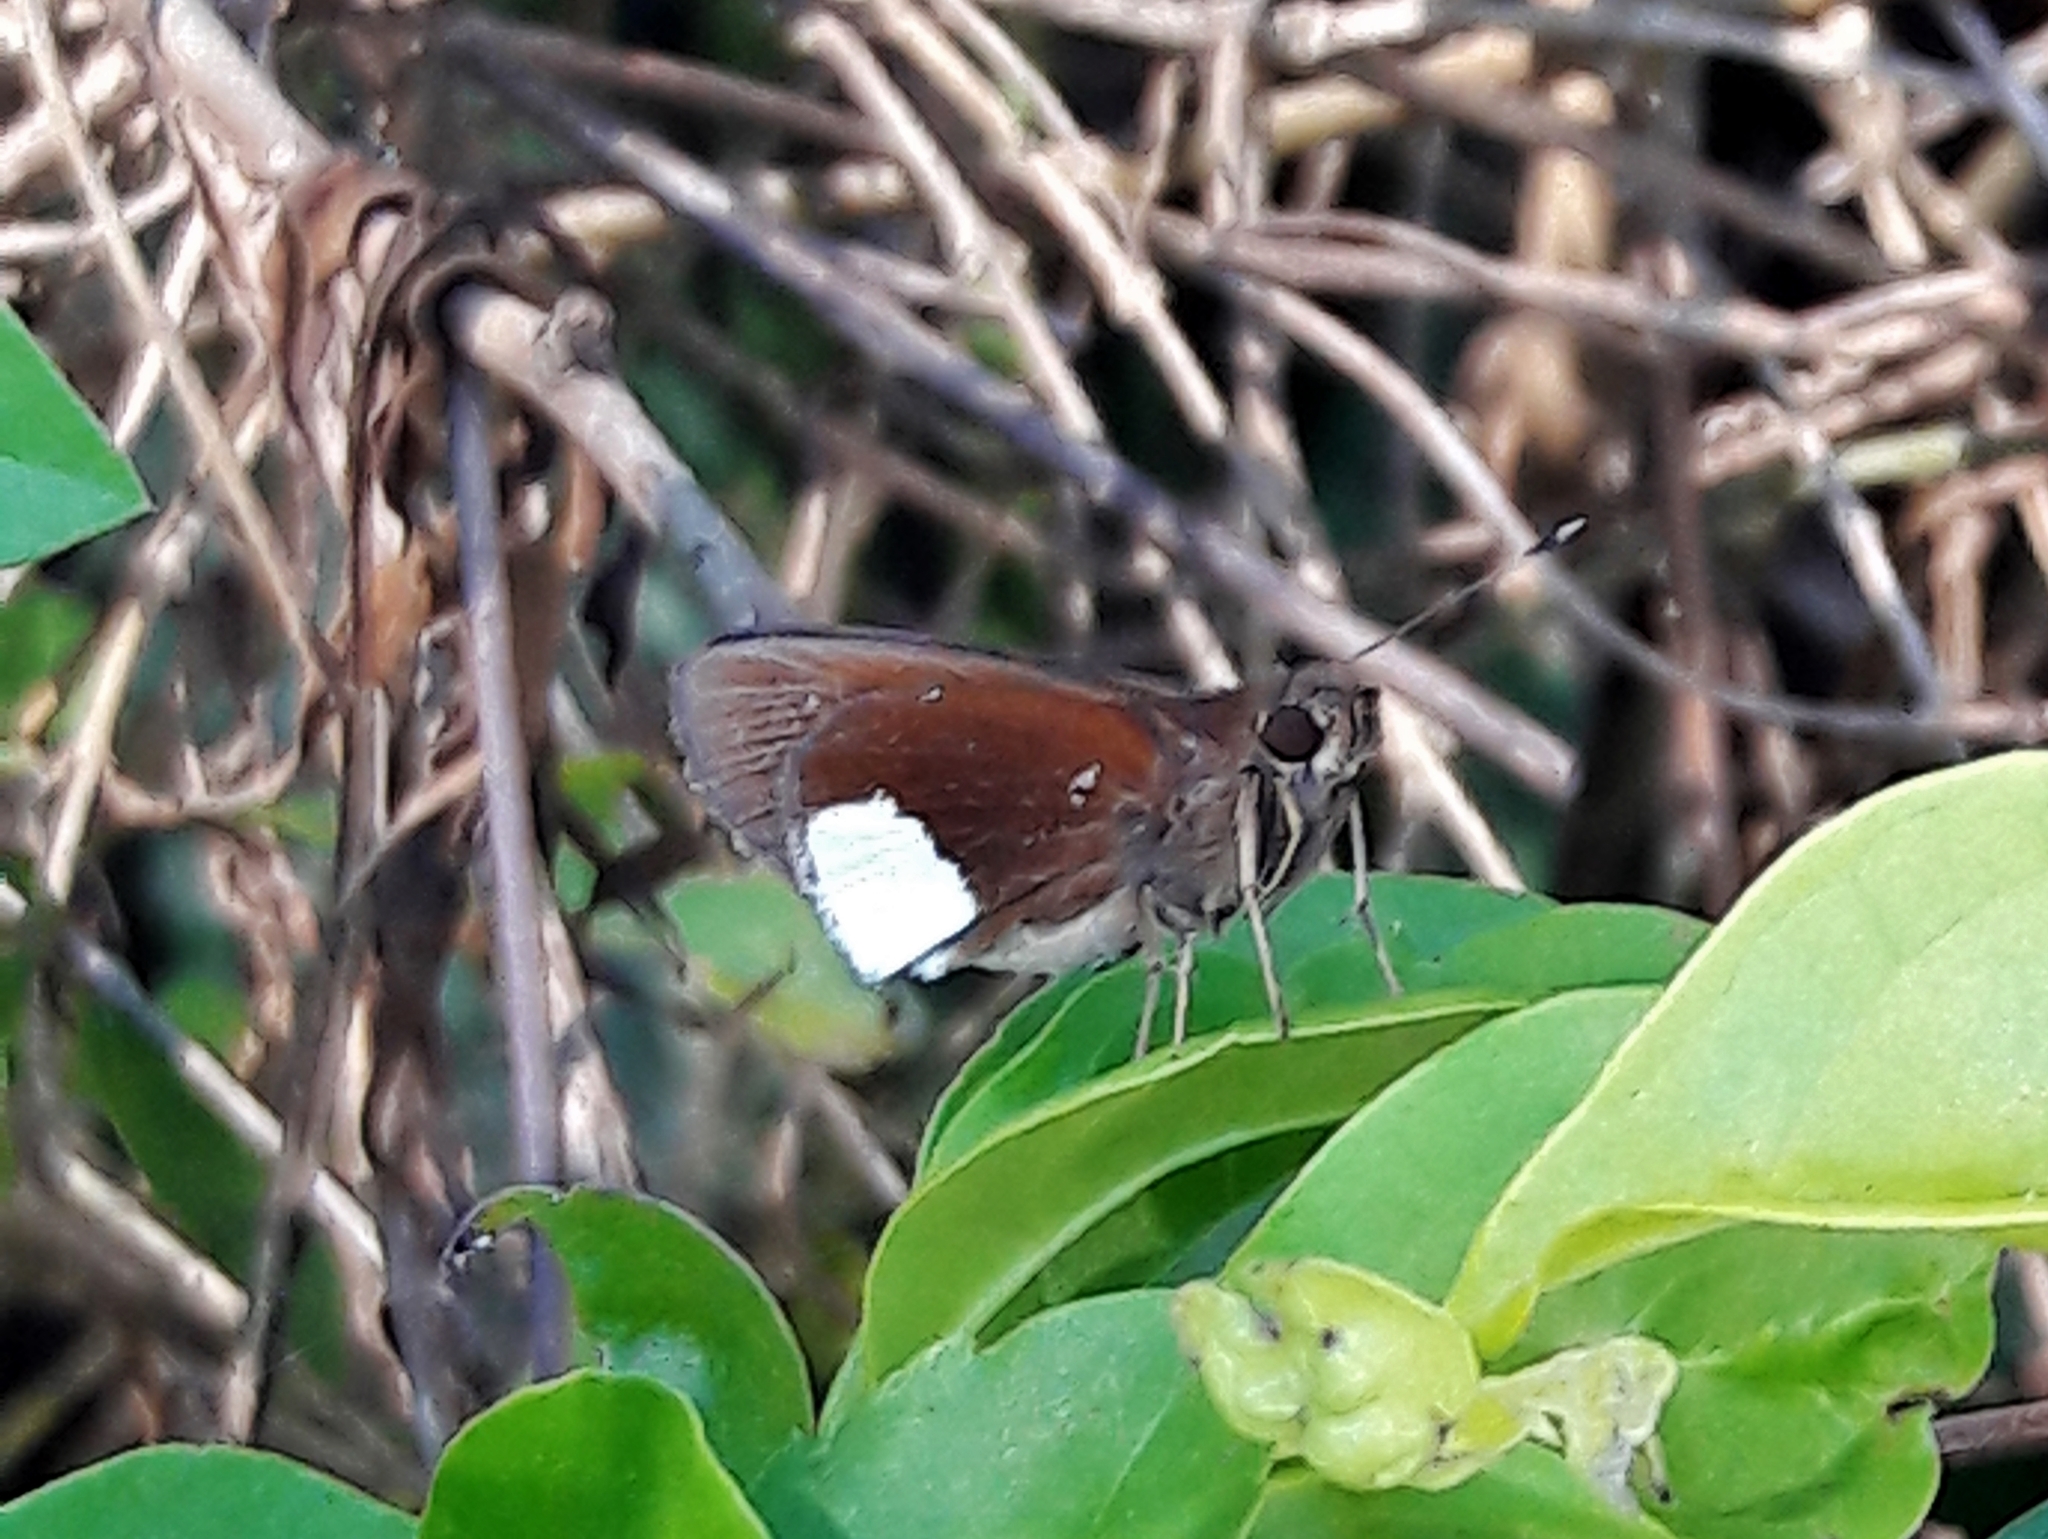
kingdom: Animalia
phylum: Arthropoda
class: Insecta
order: Lepidoptera
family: Hesperiidae
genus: Cobalus
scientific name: Cobalus virbius
